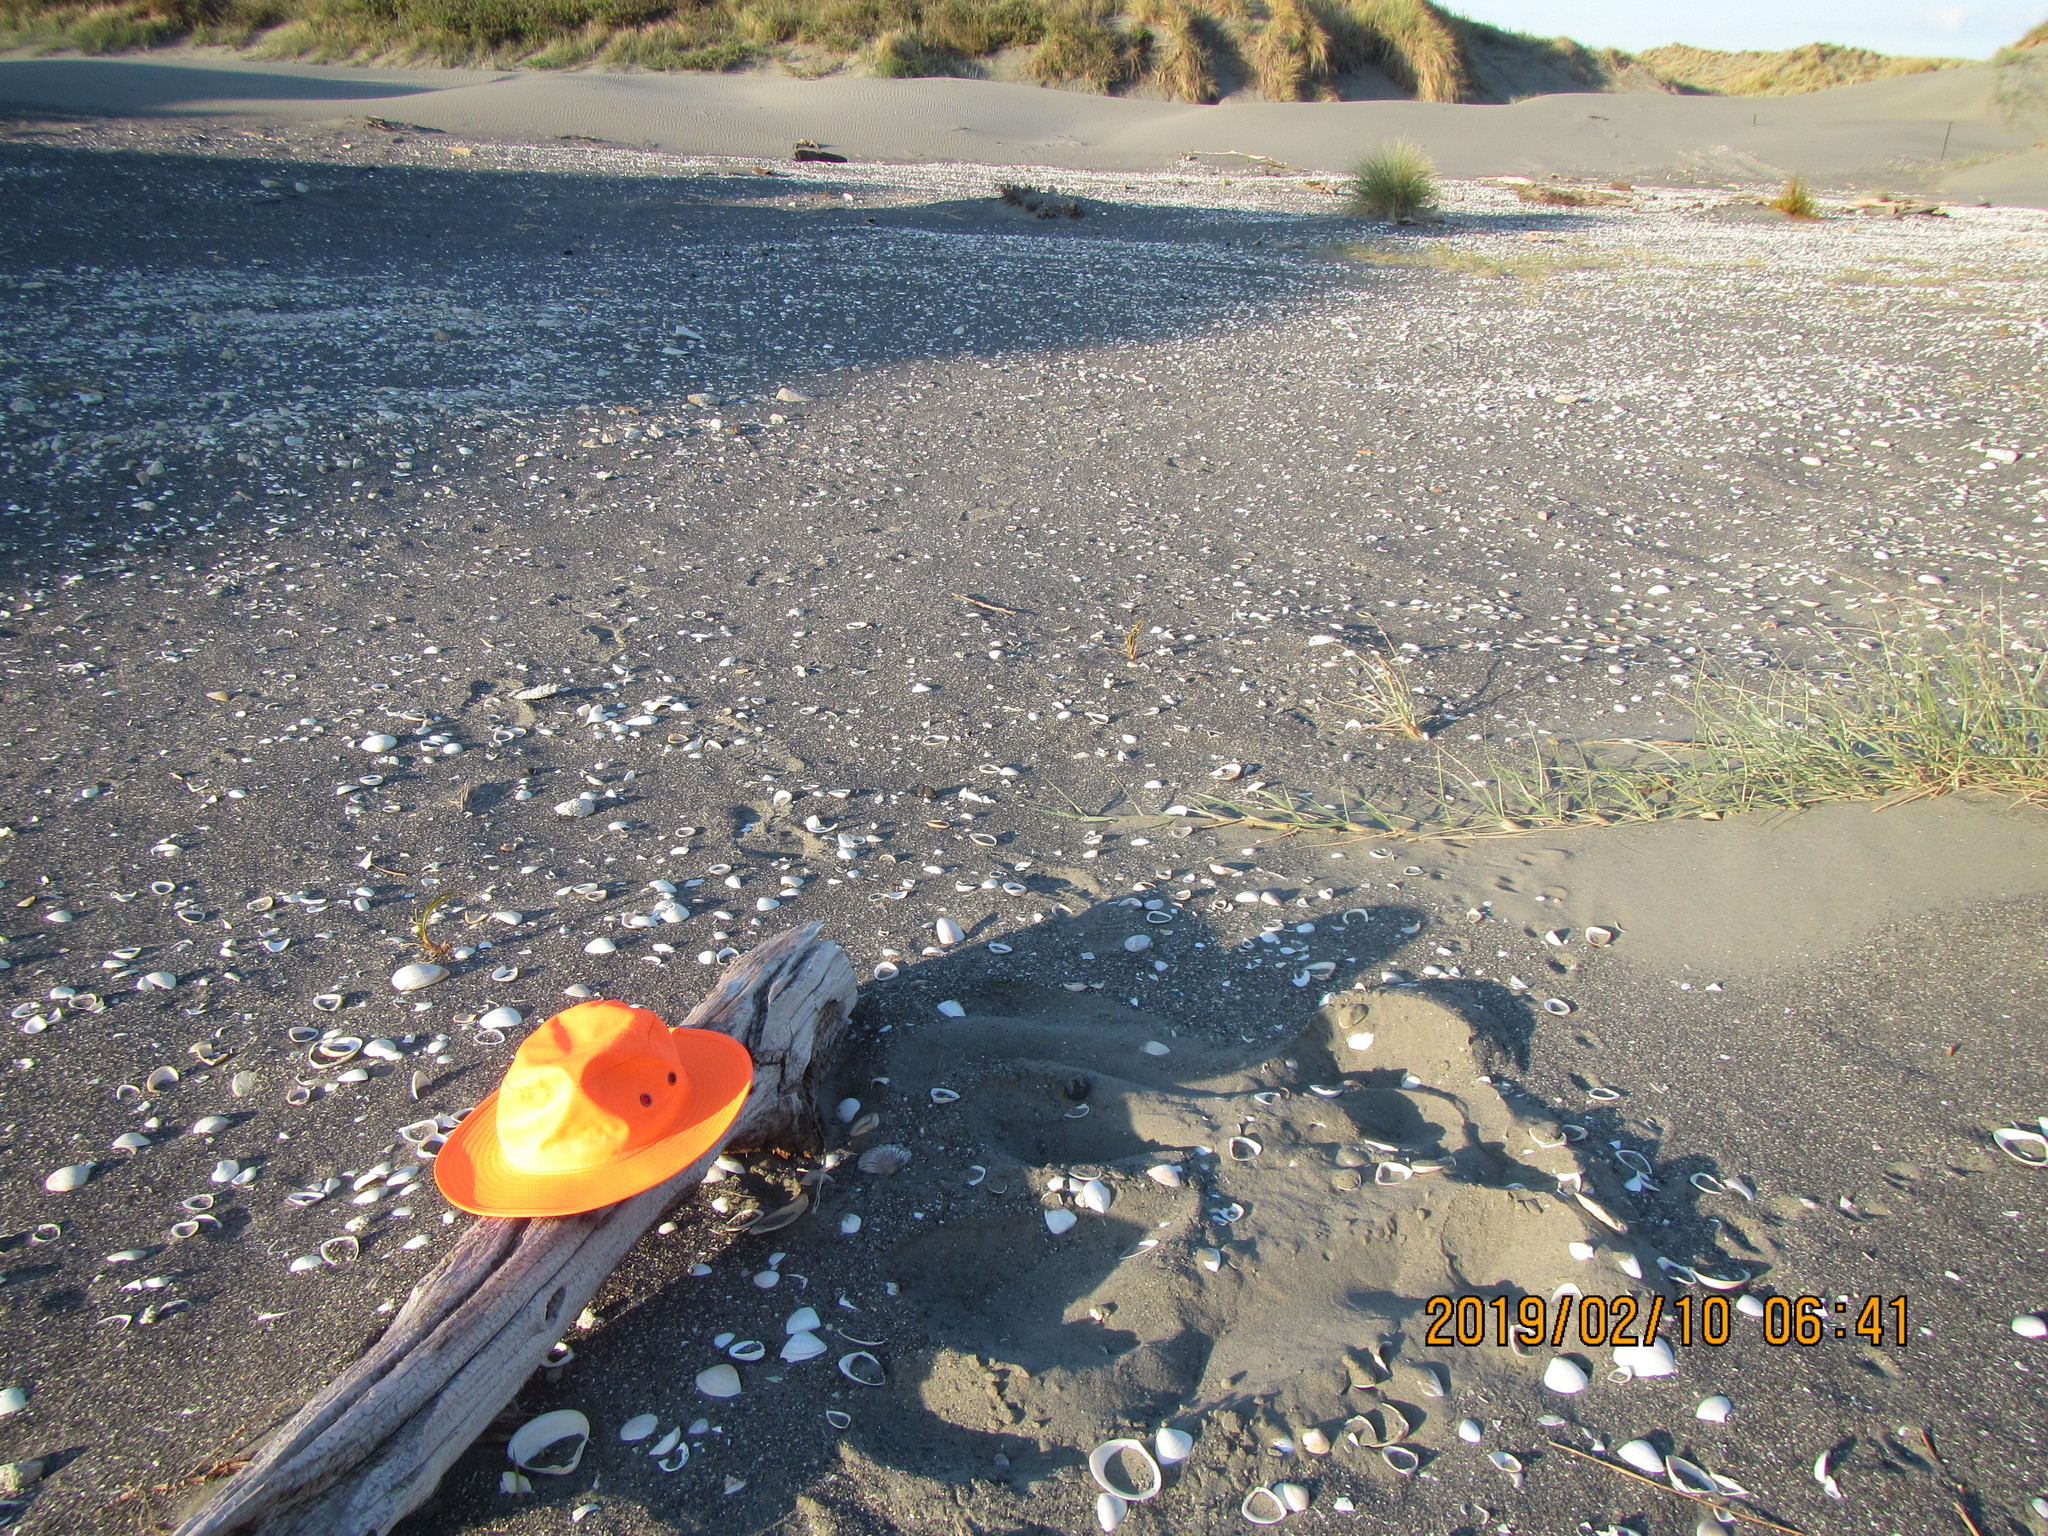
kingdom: Animalia
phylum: Mollusca
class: Bivalvia
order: Pectinida
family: Pectinidae
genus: Pecten
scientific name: Pecten novaezelandiae
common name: New zealand scallop
